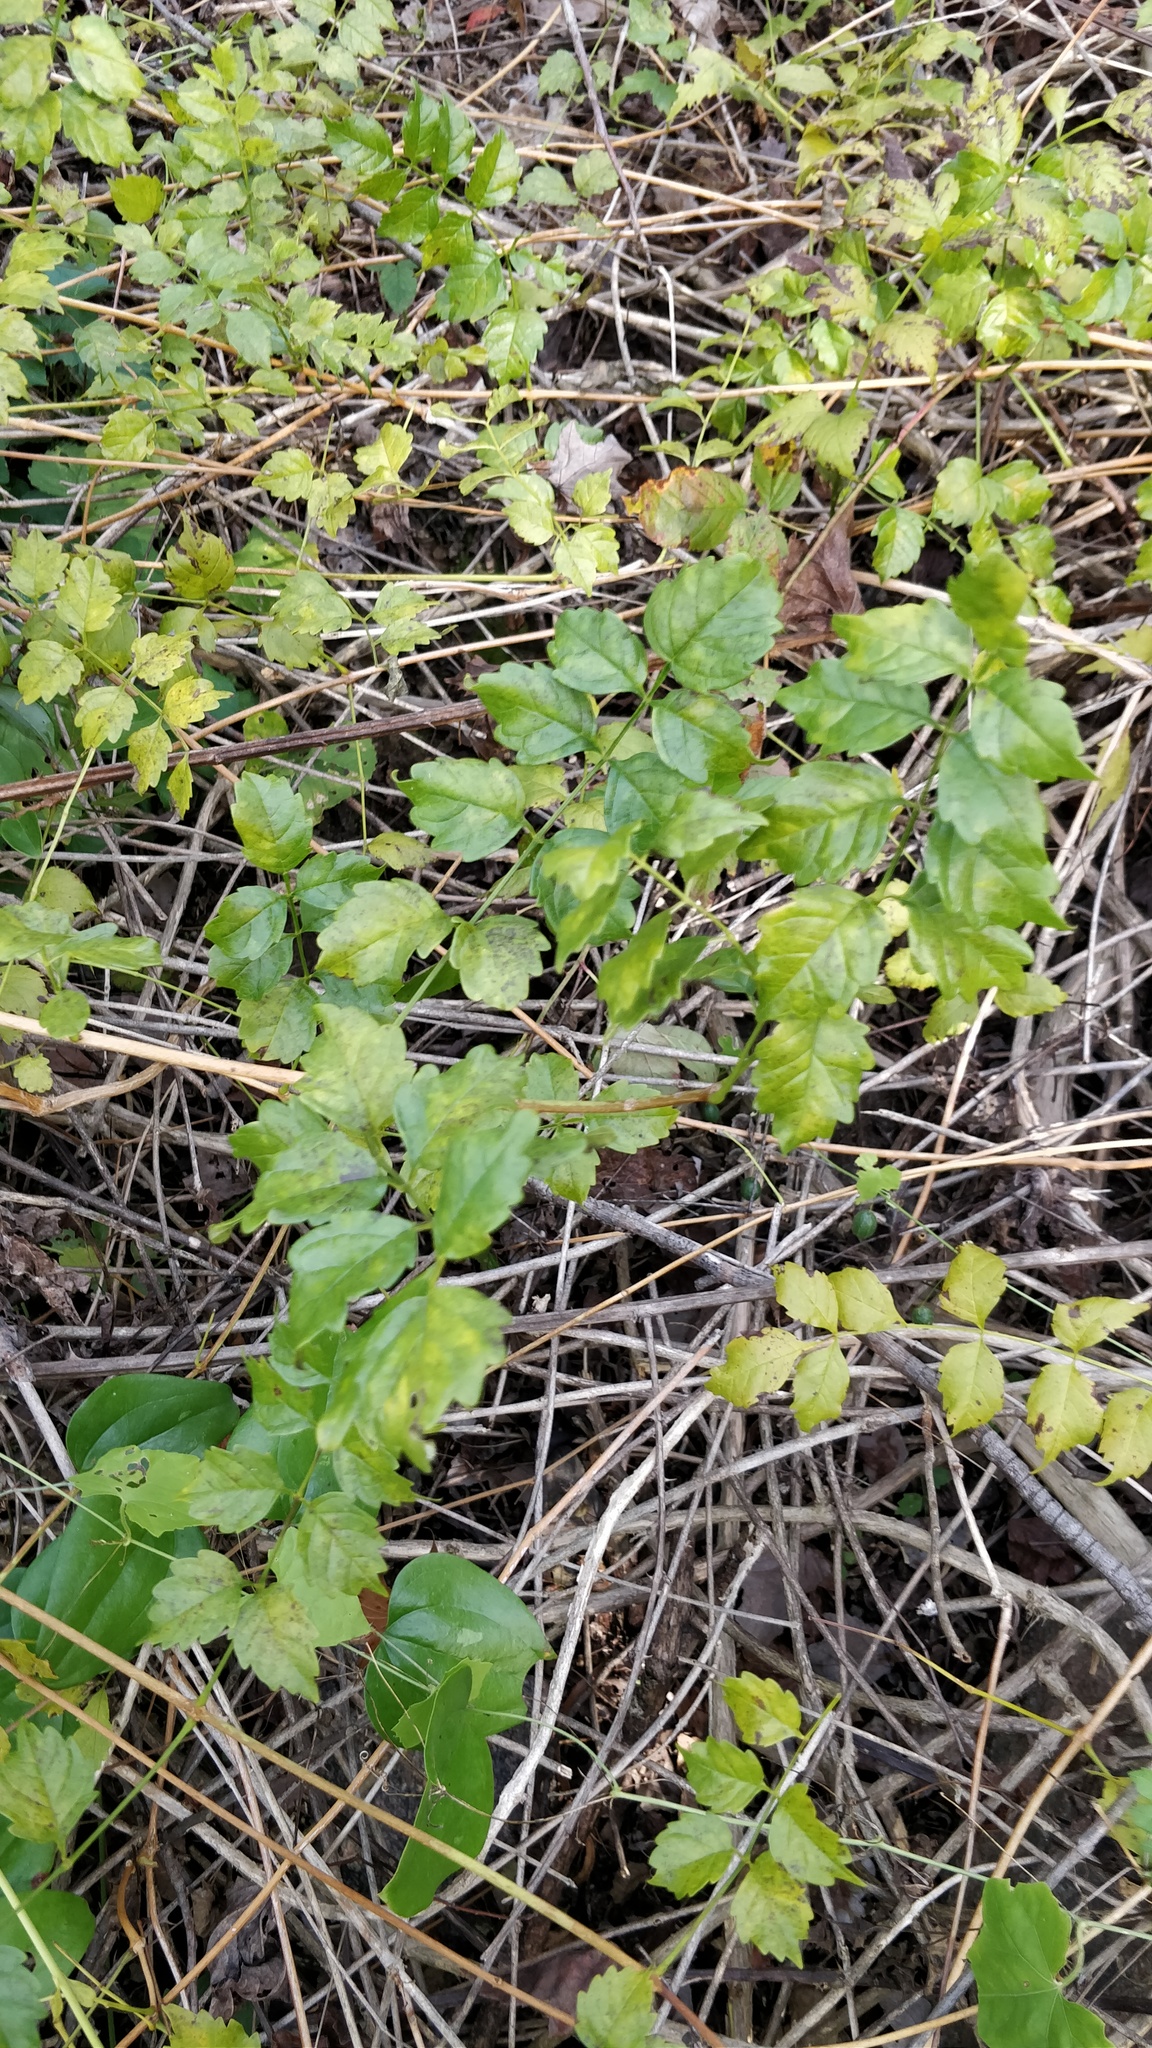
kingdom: Plantae
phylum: Tracheophyta
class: Magnoliopsida
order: Lamiales
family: Bignoniaceae
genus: Campsis
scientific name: Campsis radicans
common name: Trumpet-creeper
